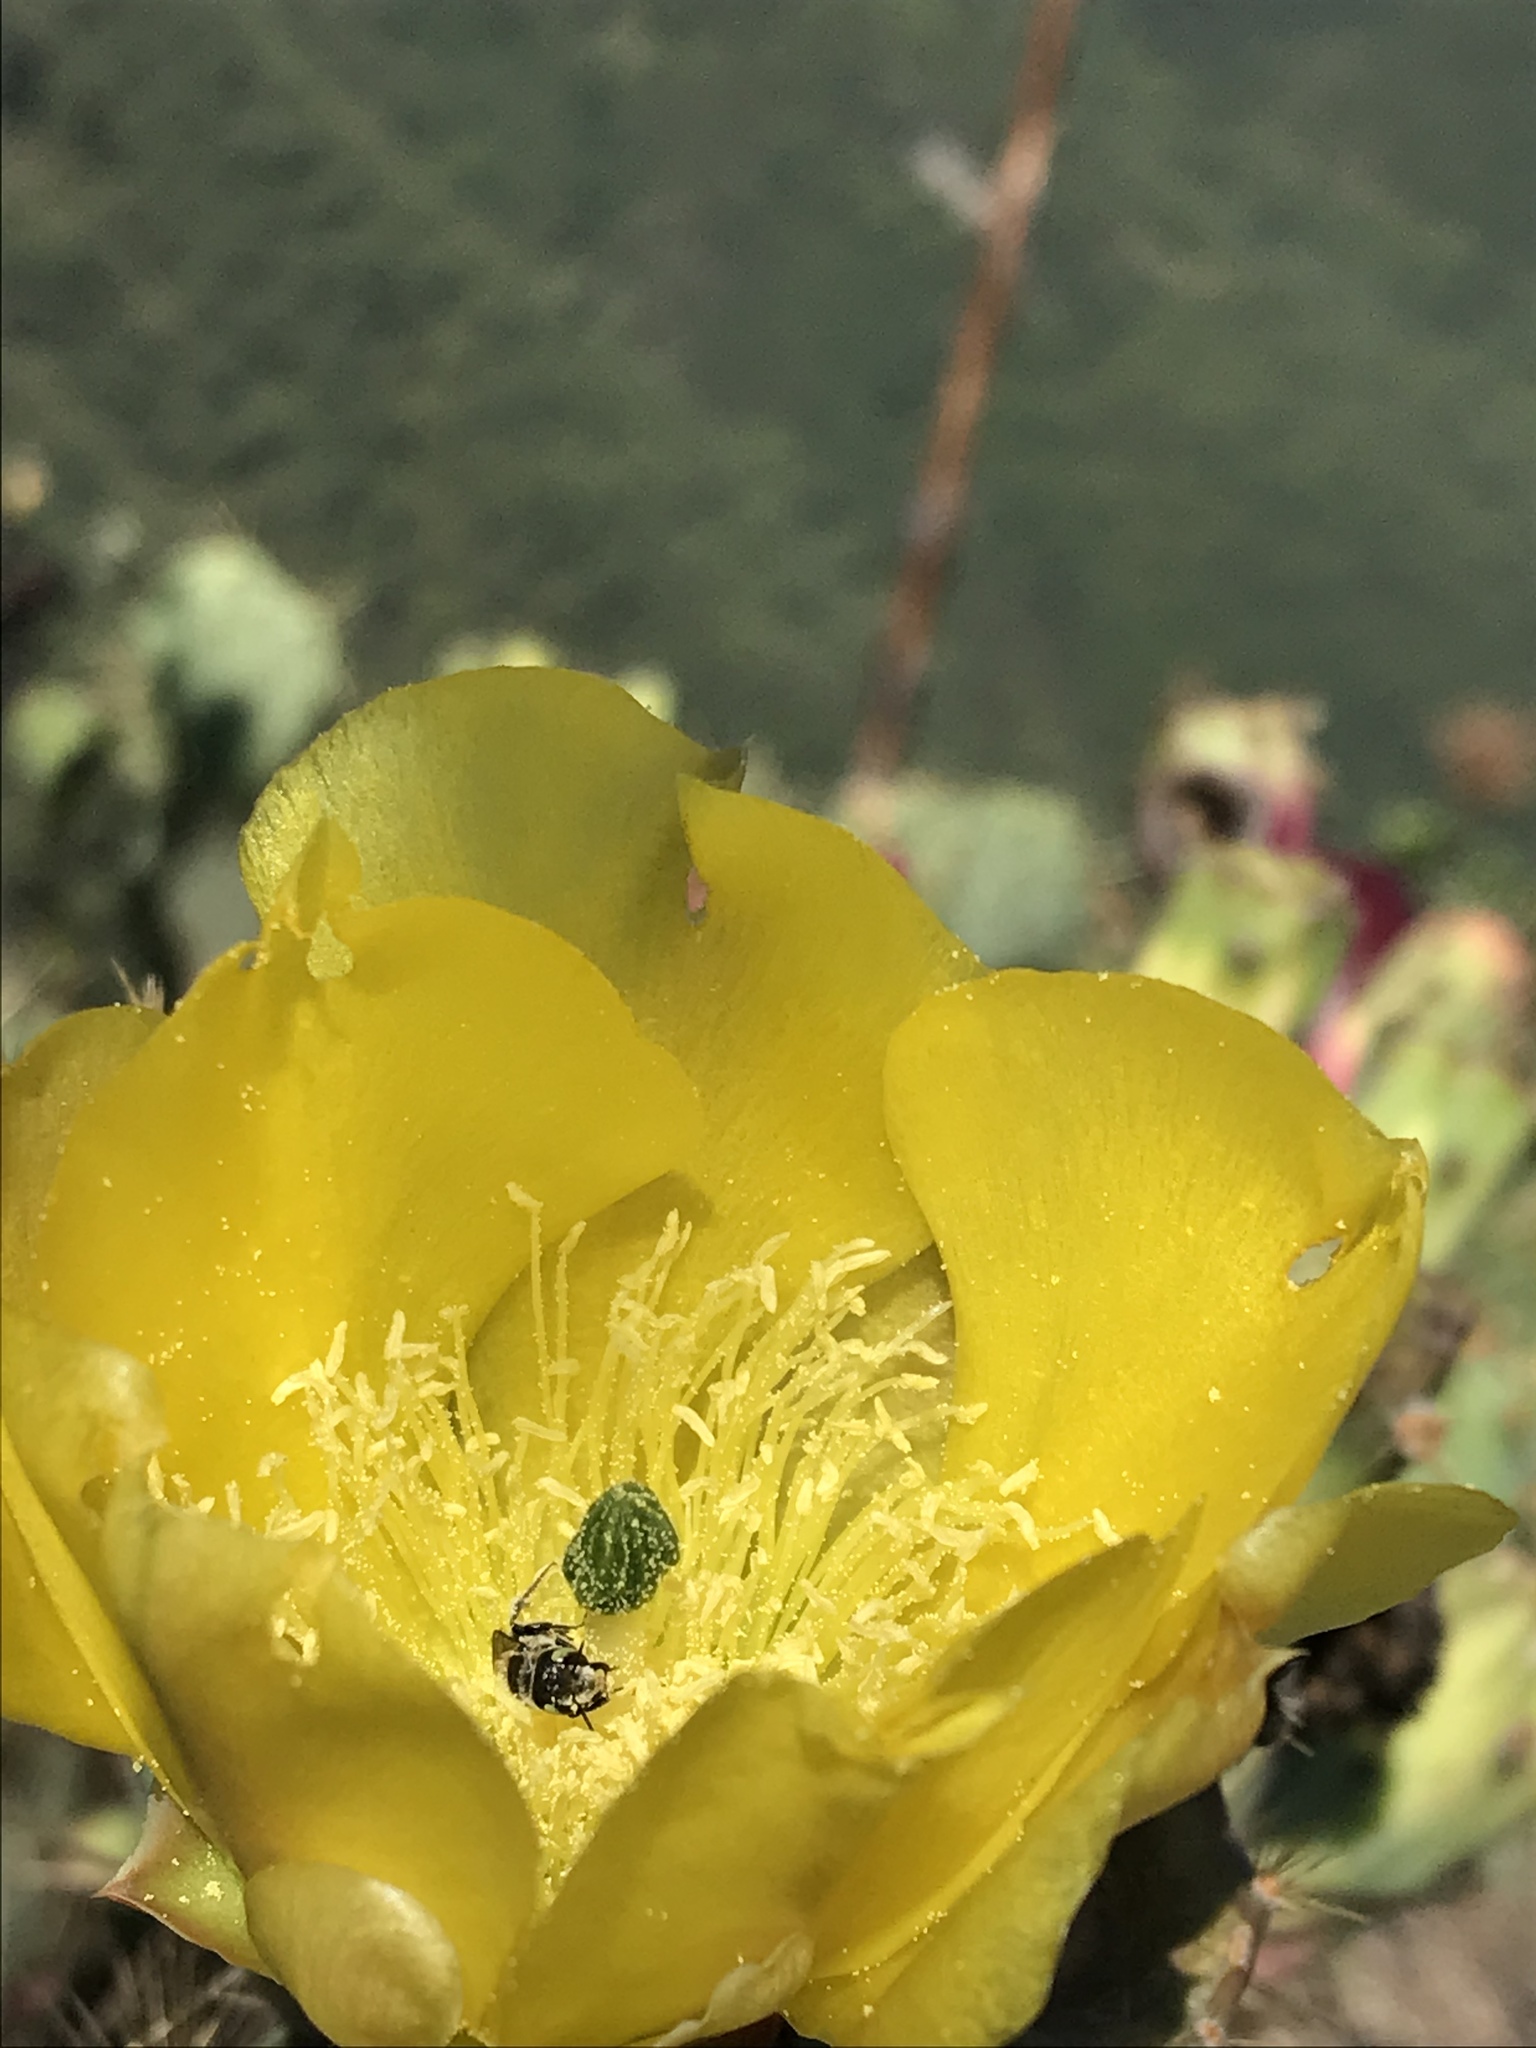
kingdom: Plantae
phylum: Tracheophyta
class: Magnoliopsida
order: Caryophyllales
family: Cactaceae
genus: Opuntia
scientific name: Opuntia engelmannii
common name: Cactus-apple
